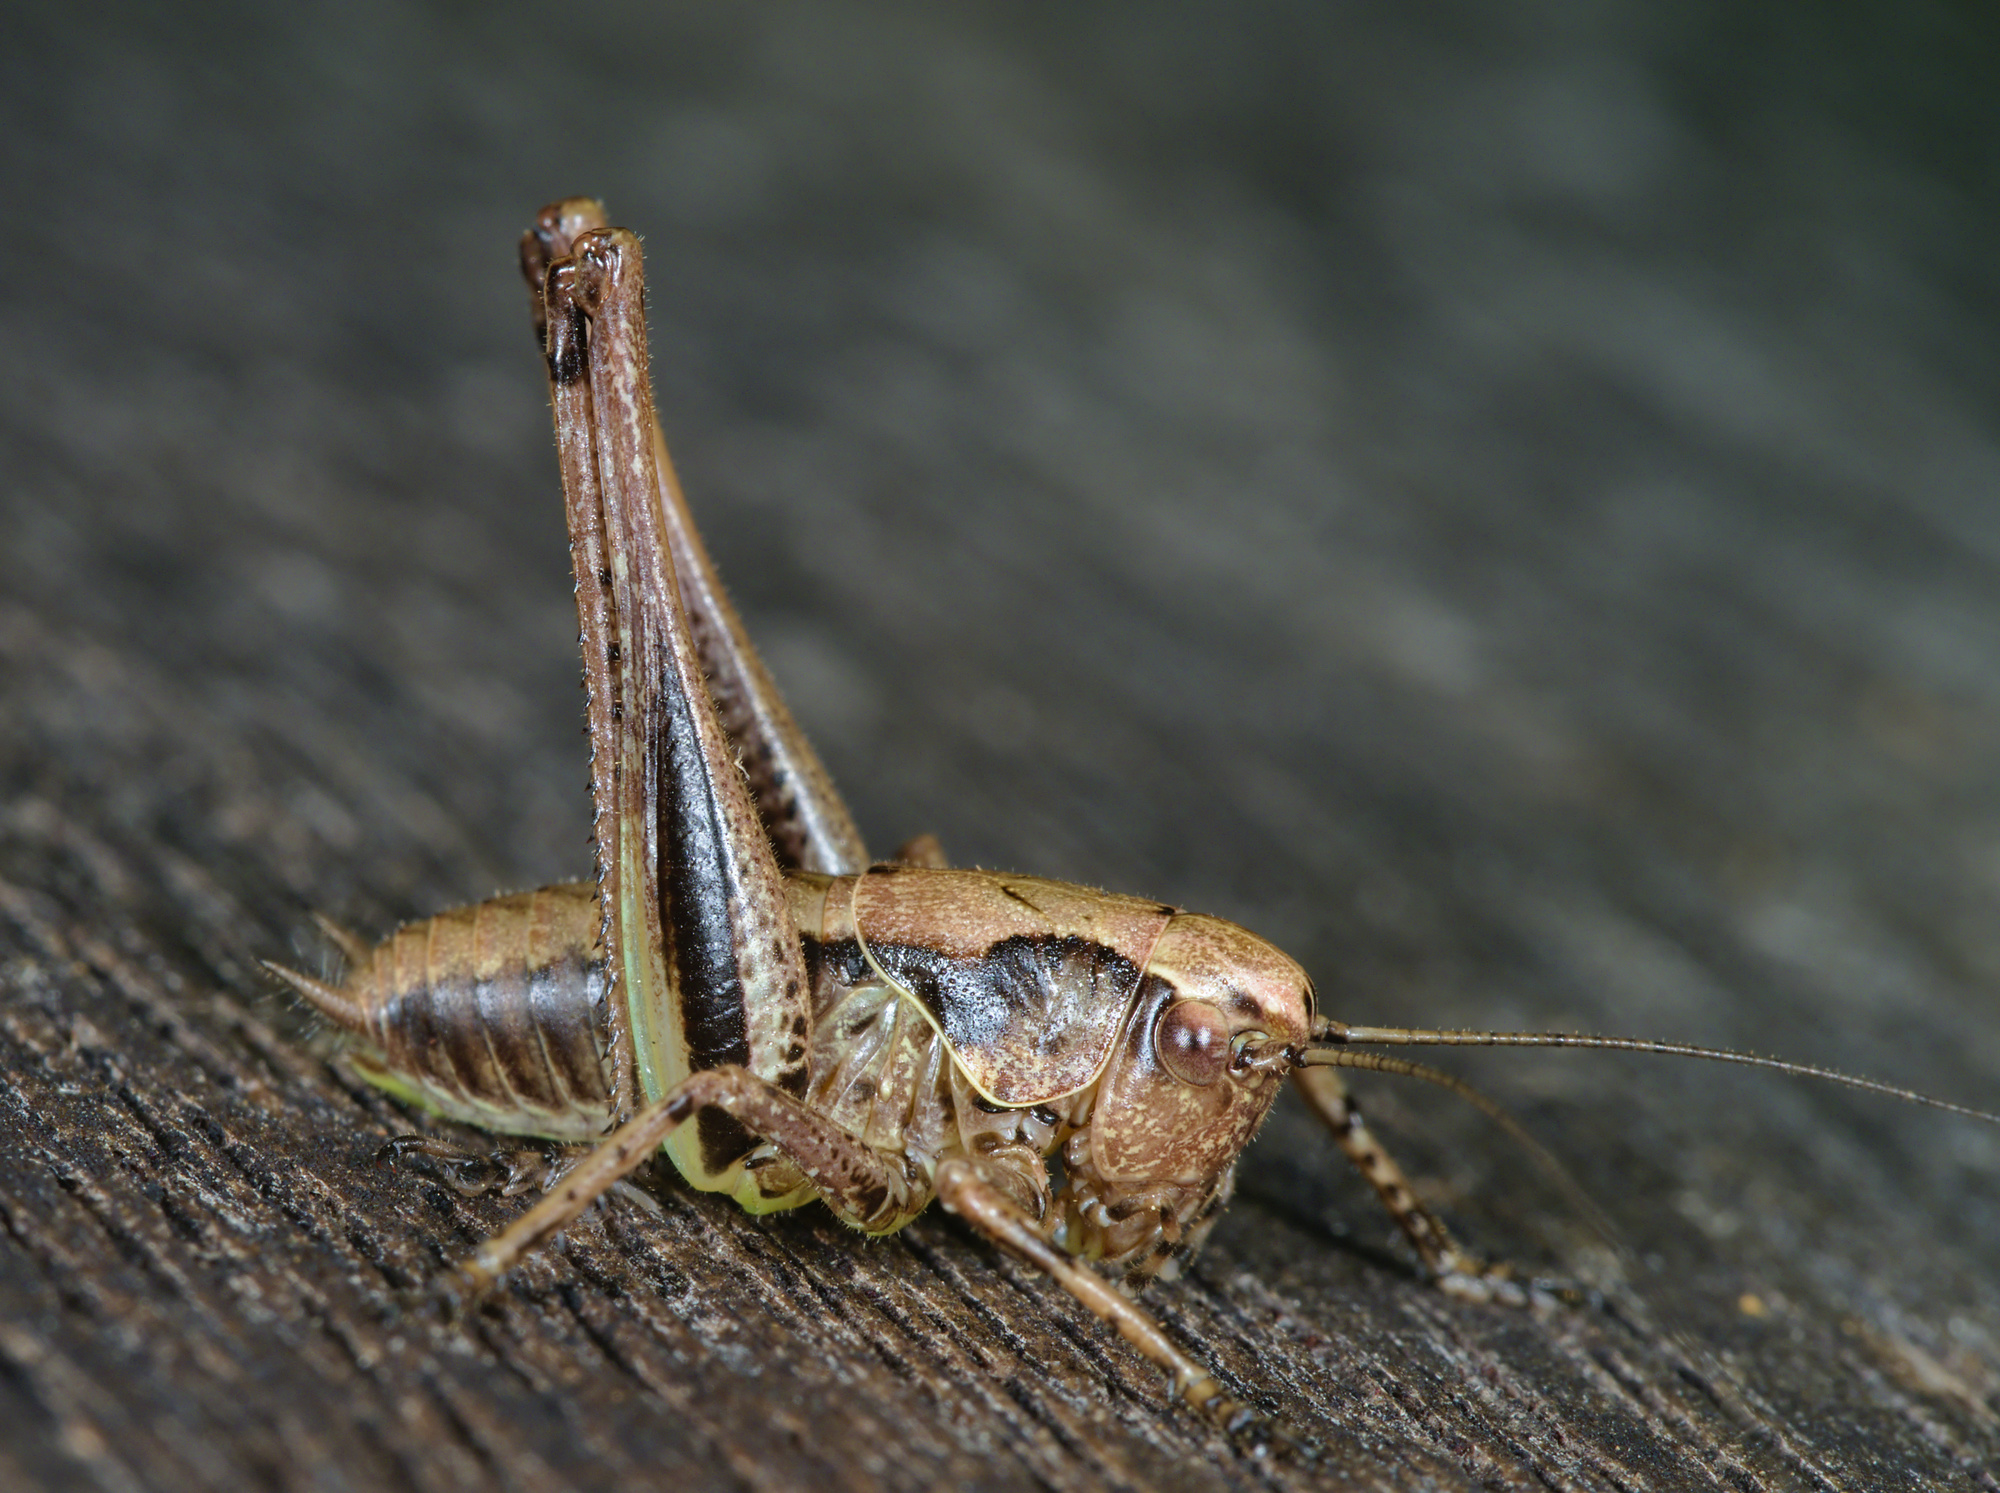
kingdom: Animalia
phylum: Arthropoda
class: Insecta
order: Orthoptera
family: Tettigoniidae
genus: Pholidoptera
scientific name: Pholidoptera griseoaptera
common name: Dark bush-cricket
